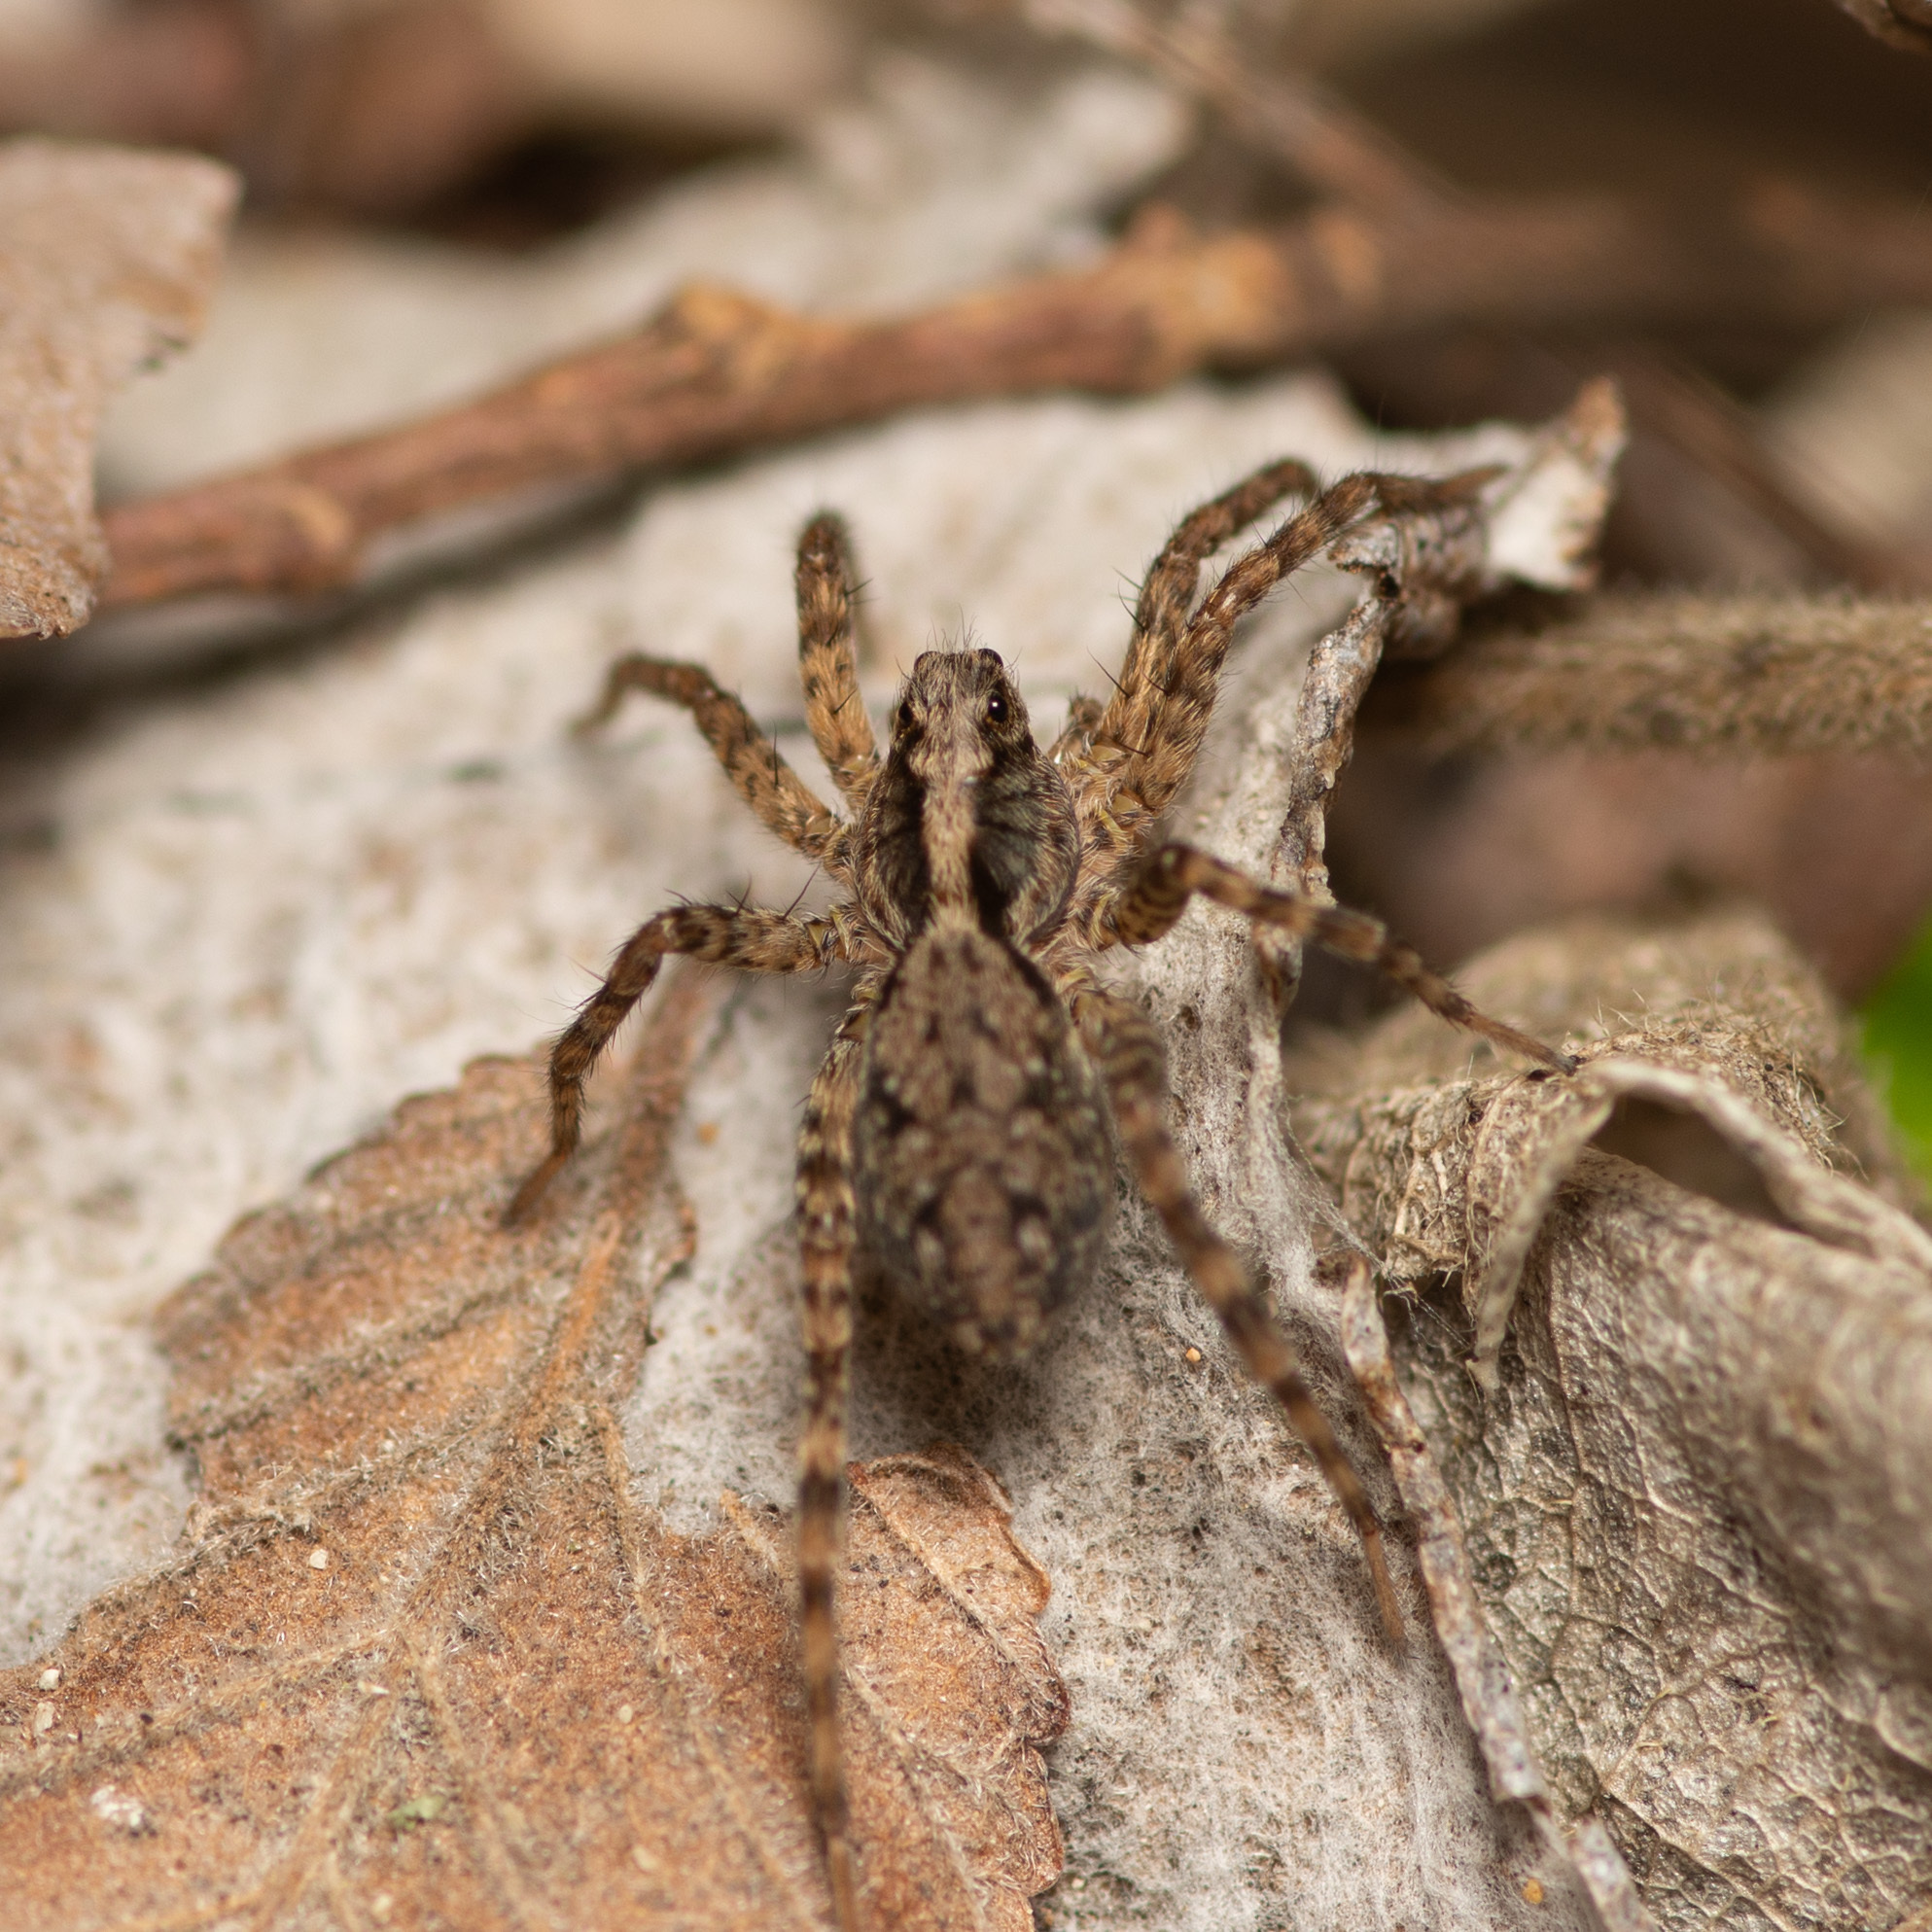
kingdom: Animalia
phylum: Arthropoda
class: Arachnida
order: Araneae
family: Lycosidae
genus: Hogna
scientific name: Hogna antelucana
